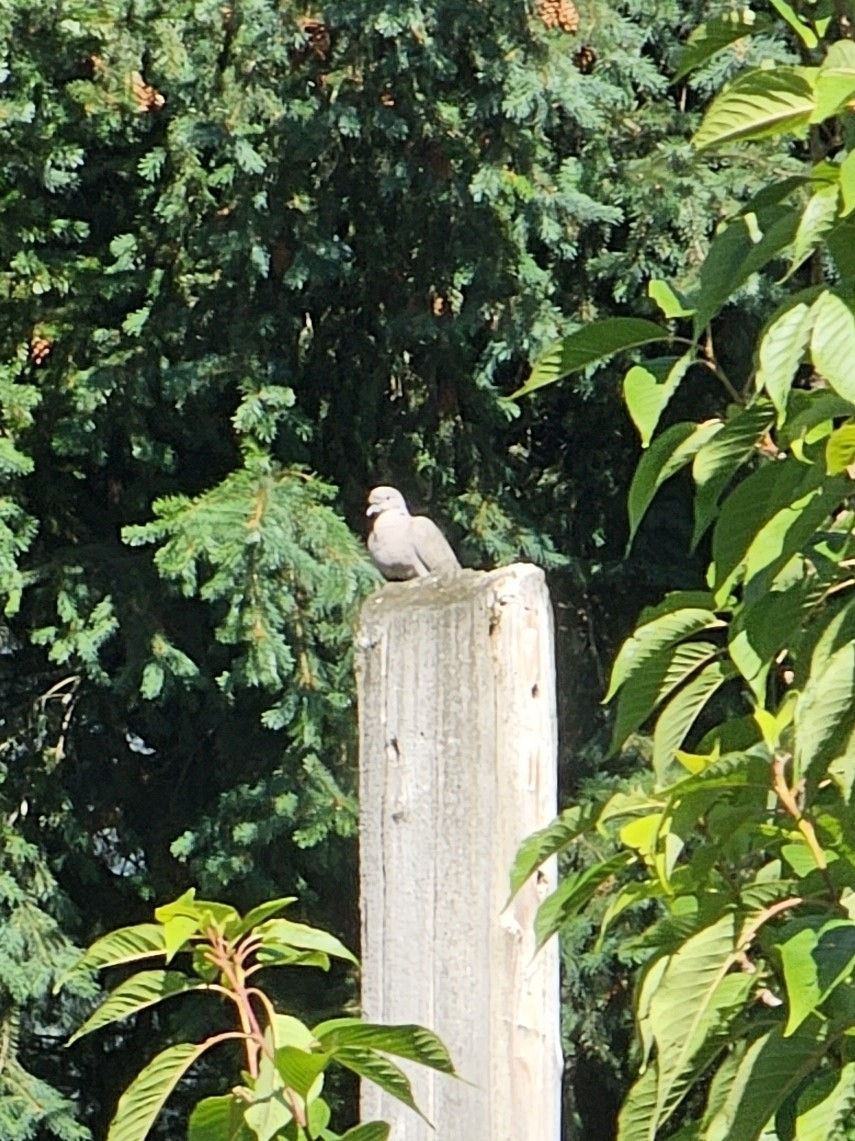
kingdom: Animalia
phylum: Chordata
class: Aves
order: Columbiformes
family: Columbidae
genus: Zenaida
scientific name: Zenaida macroura
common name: Mourning dove
